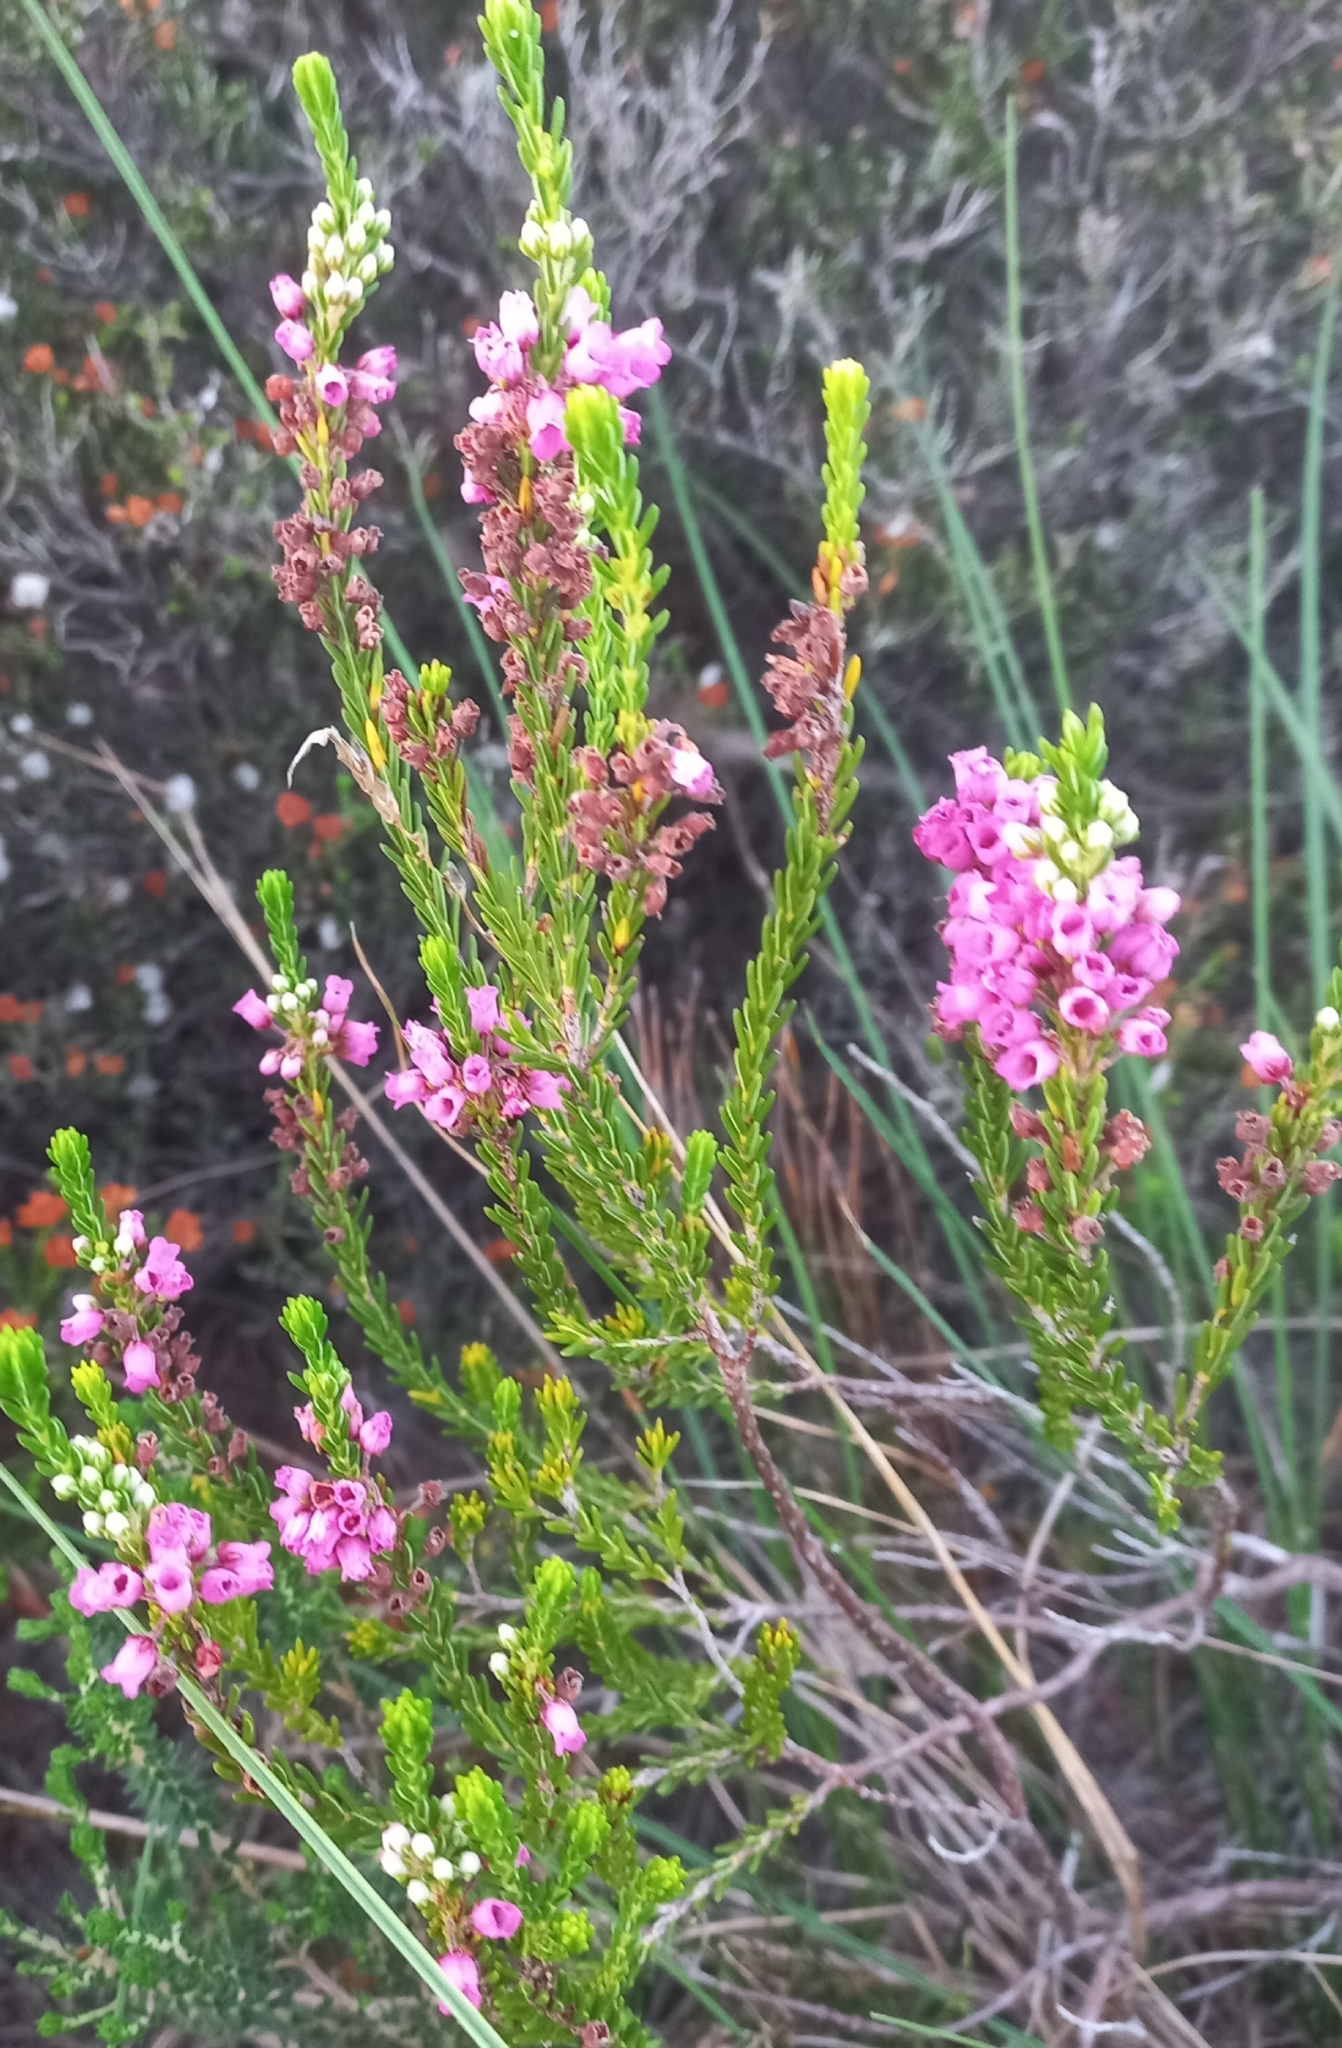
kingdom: Plantae
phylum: Tracheophyta
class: Magnoliopsida
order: Ericales
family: Ericaceae
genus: Erica
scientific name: Erica pulchella
